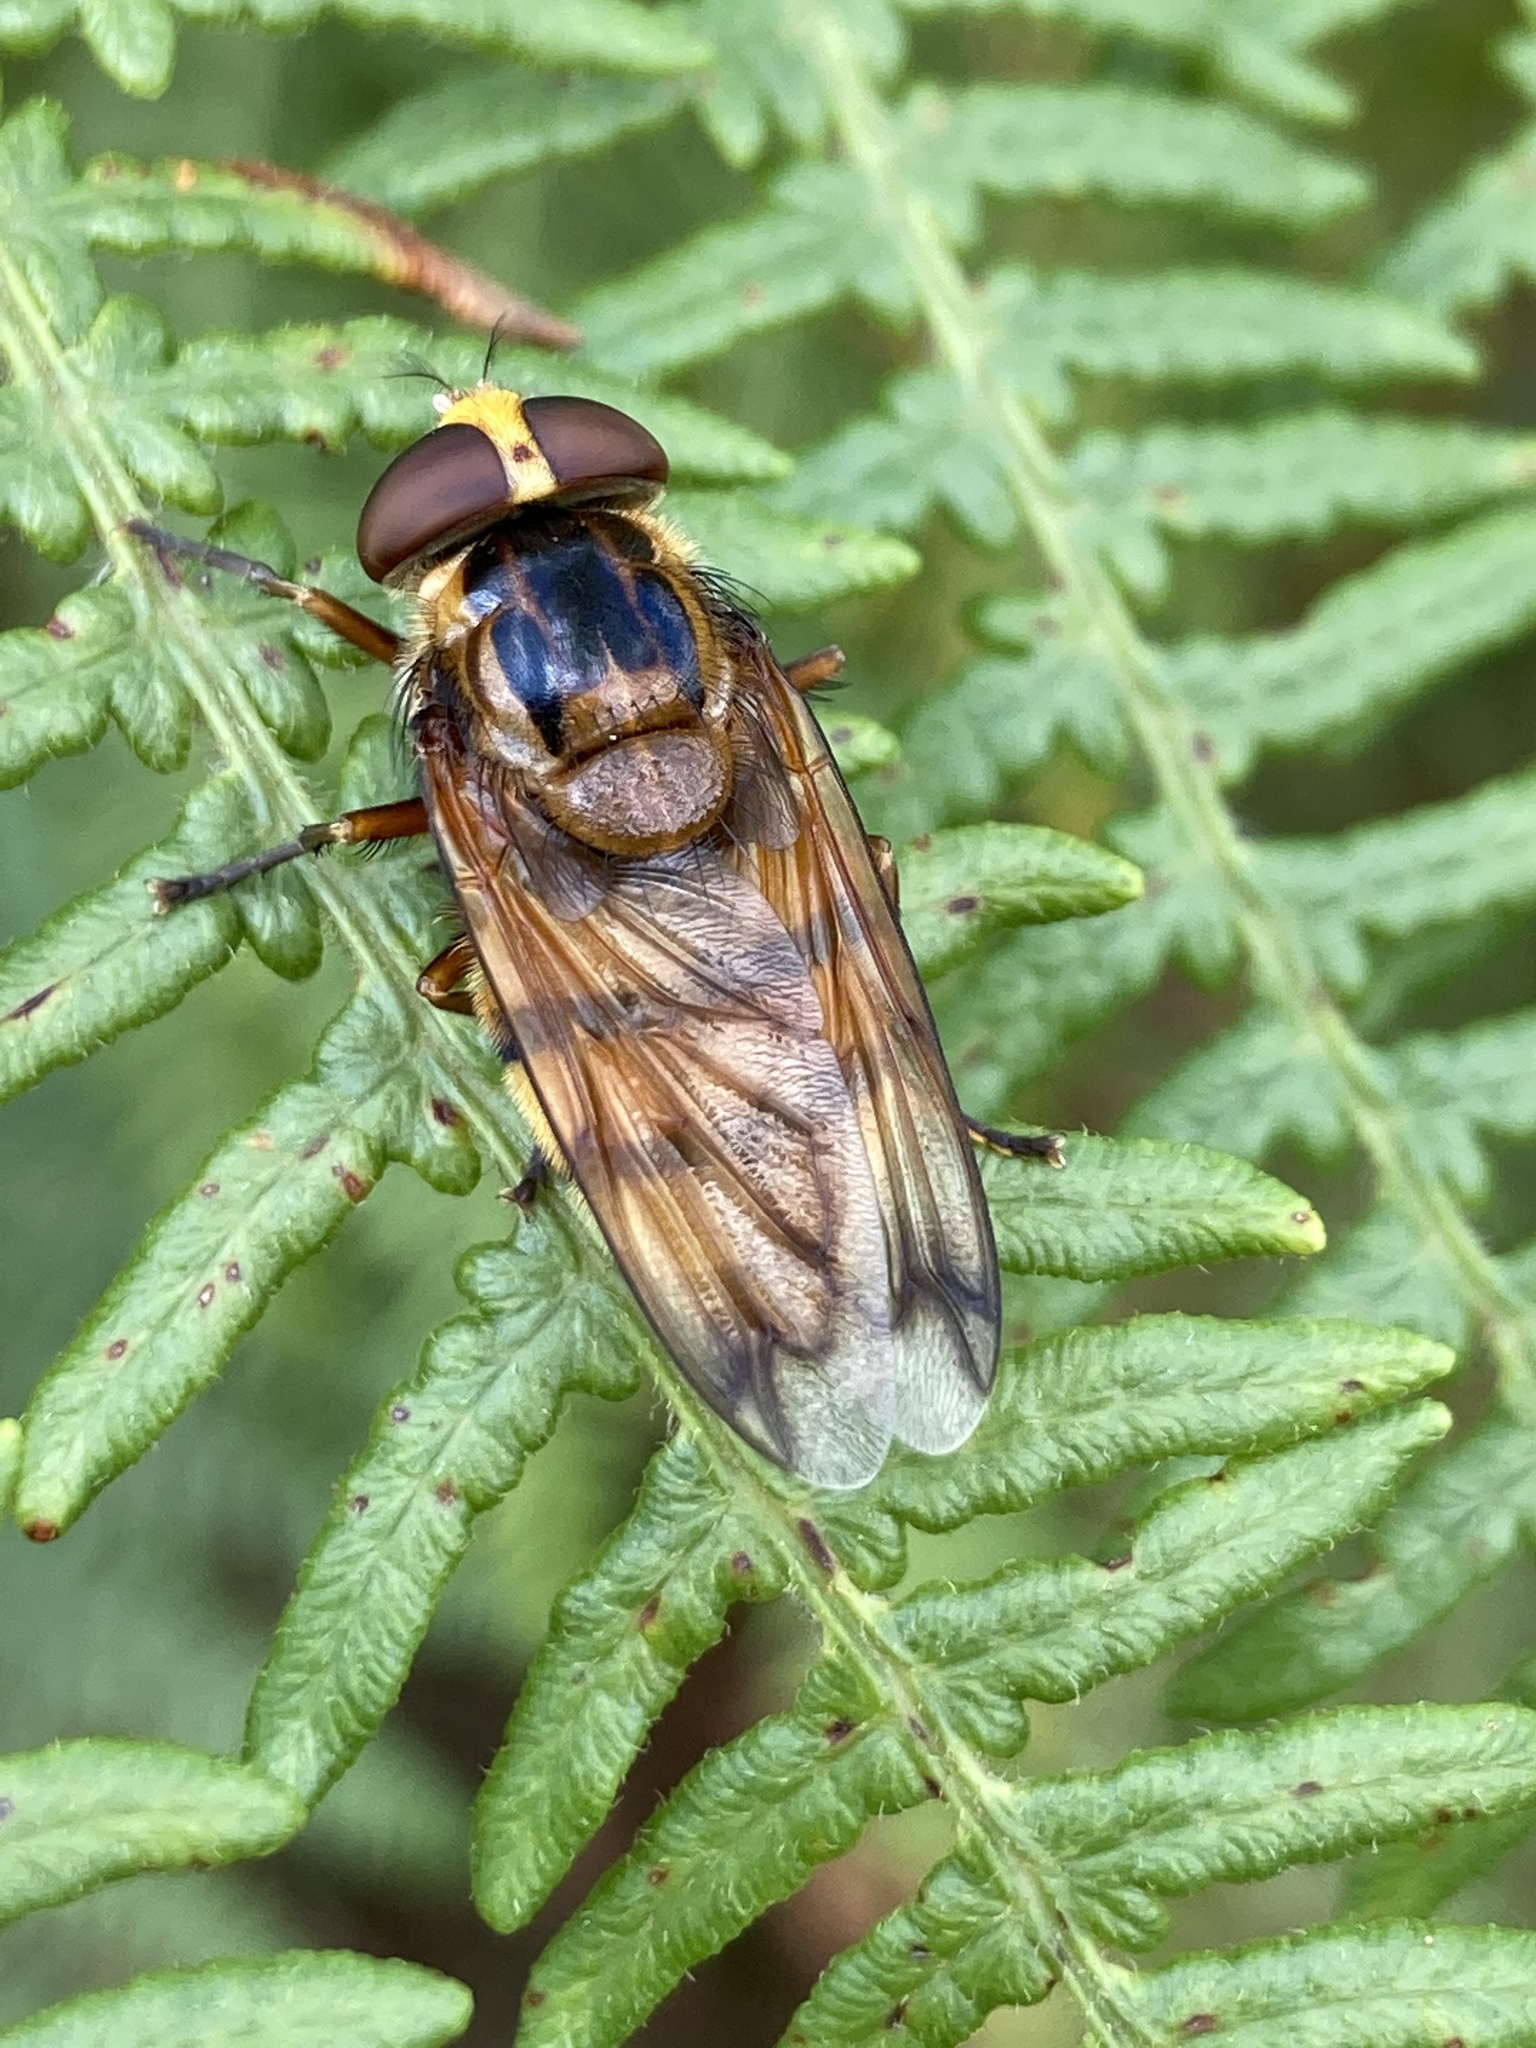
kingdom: Animalia
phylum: Arthropoda
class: Insecta
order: Diptera
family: Syrphidae
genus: Volucella
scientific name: Volucella inanis
